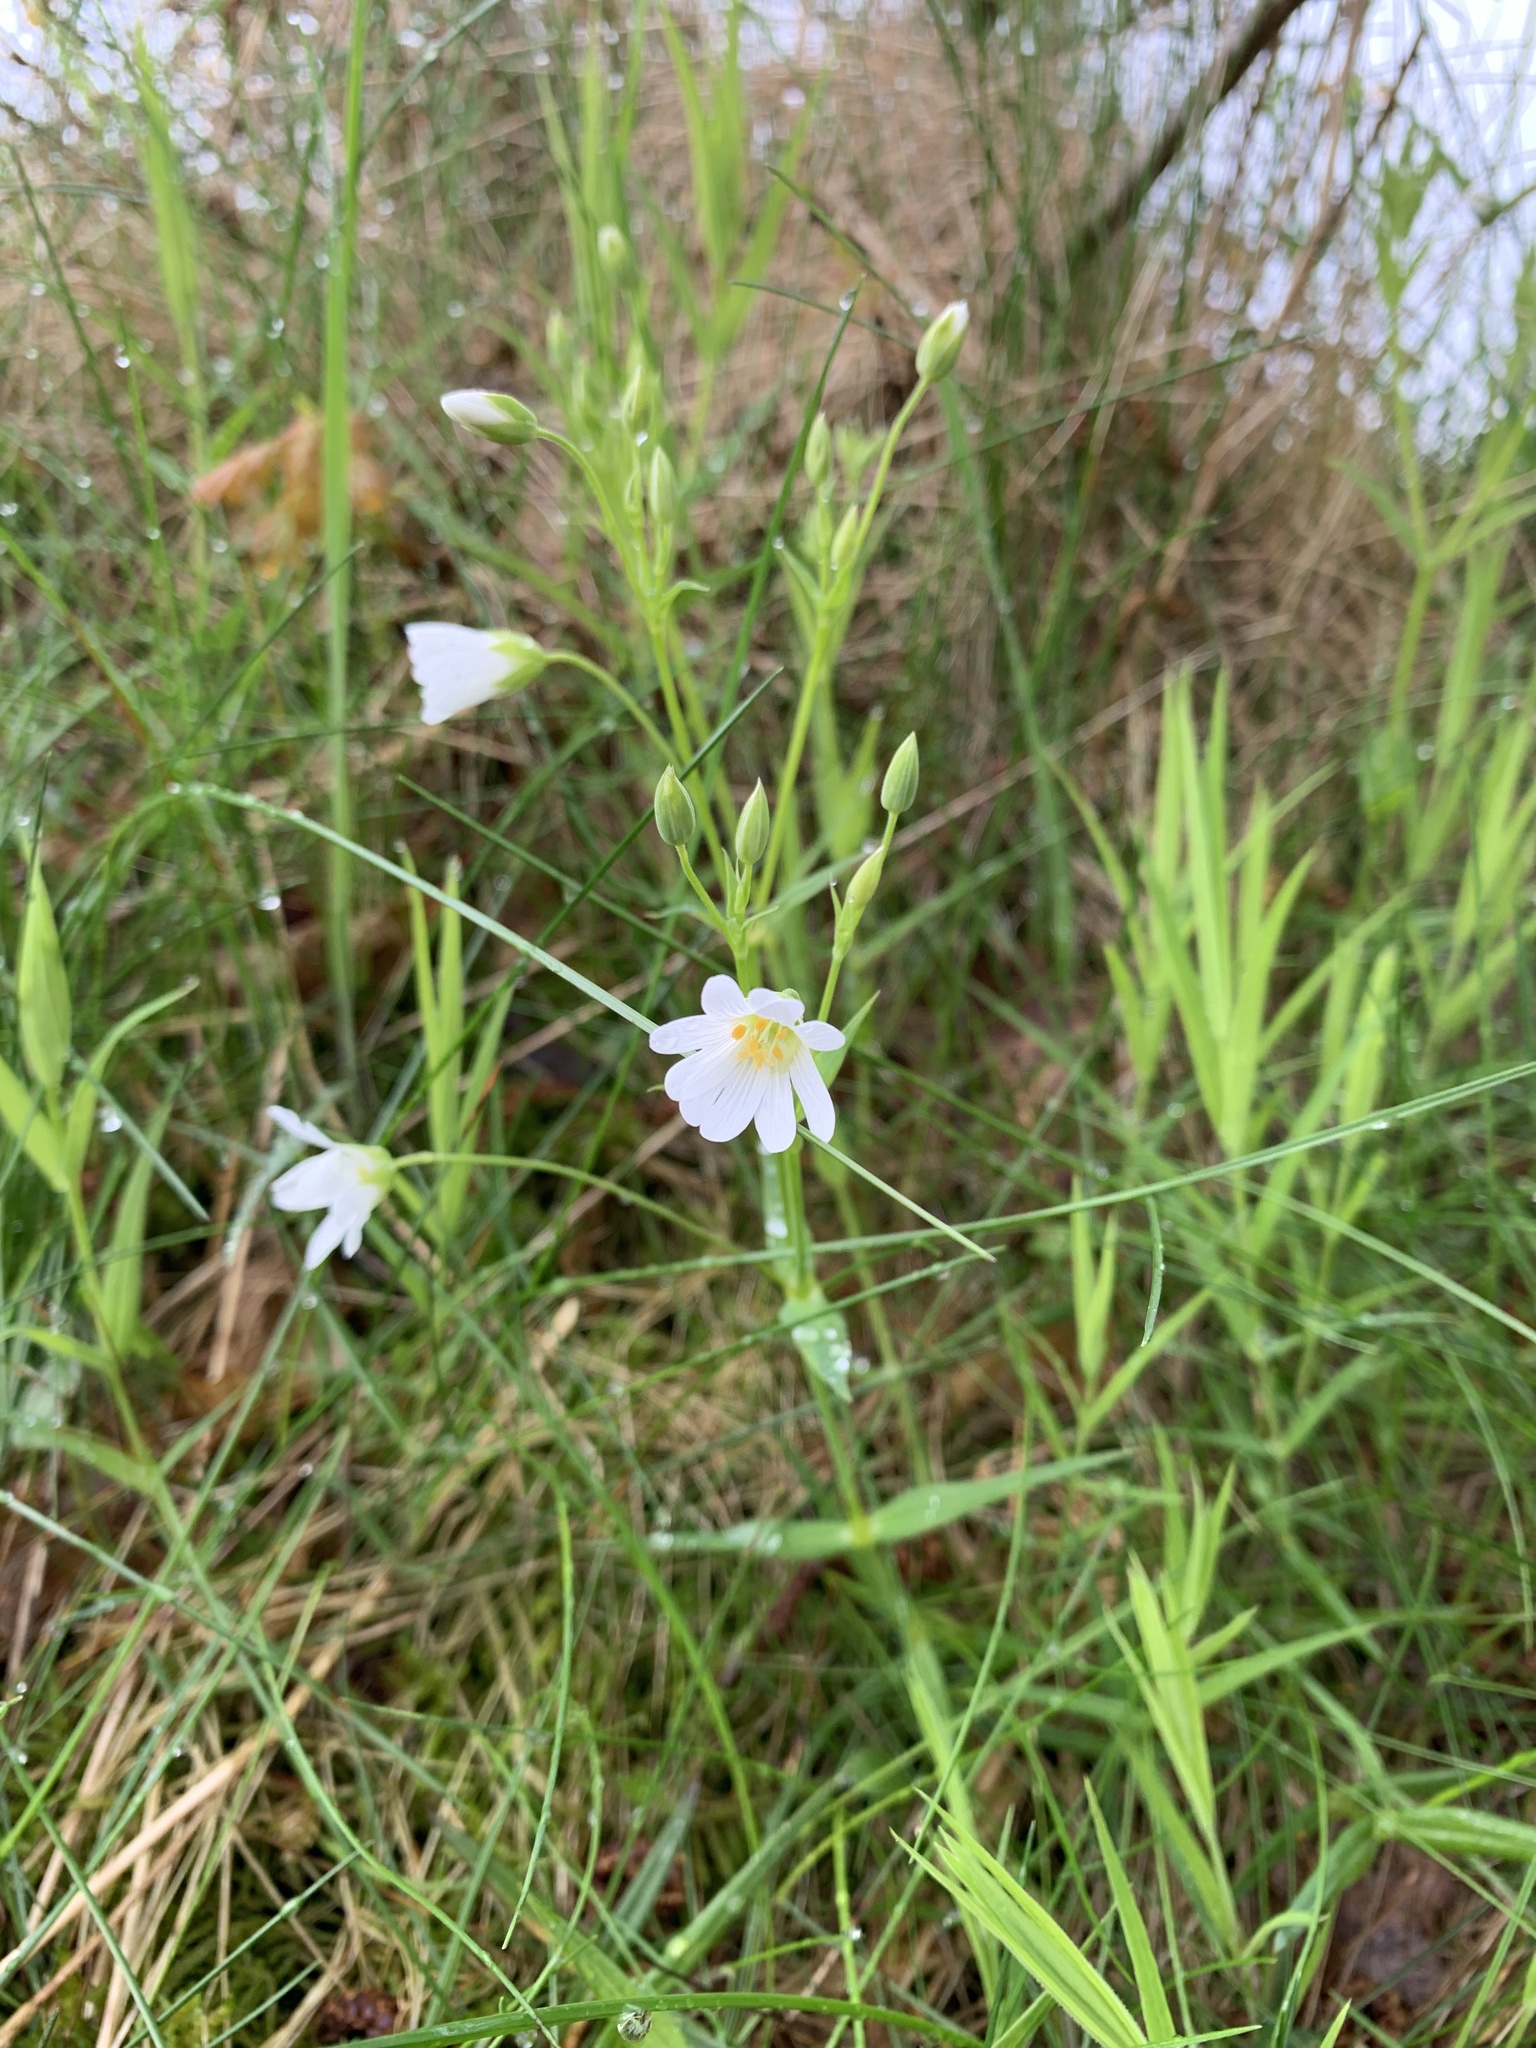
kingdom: Plantae
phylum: Tracheophyta
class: Magnoliopsida
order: Caryophyllales
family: Caryophyllaceae
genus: Rabelera
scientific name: Rabelera holostea
